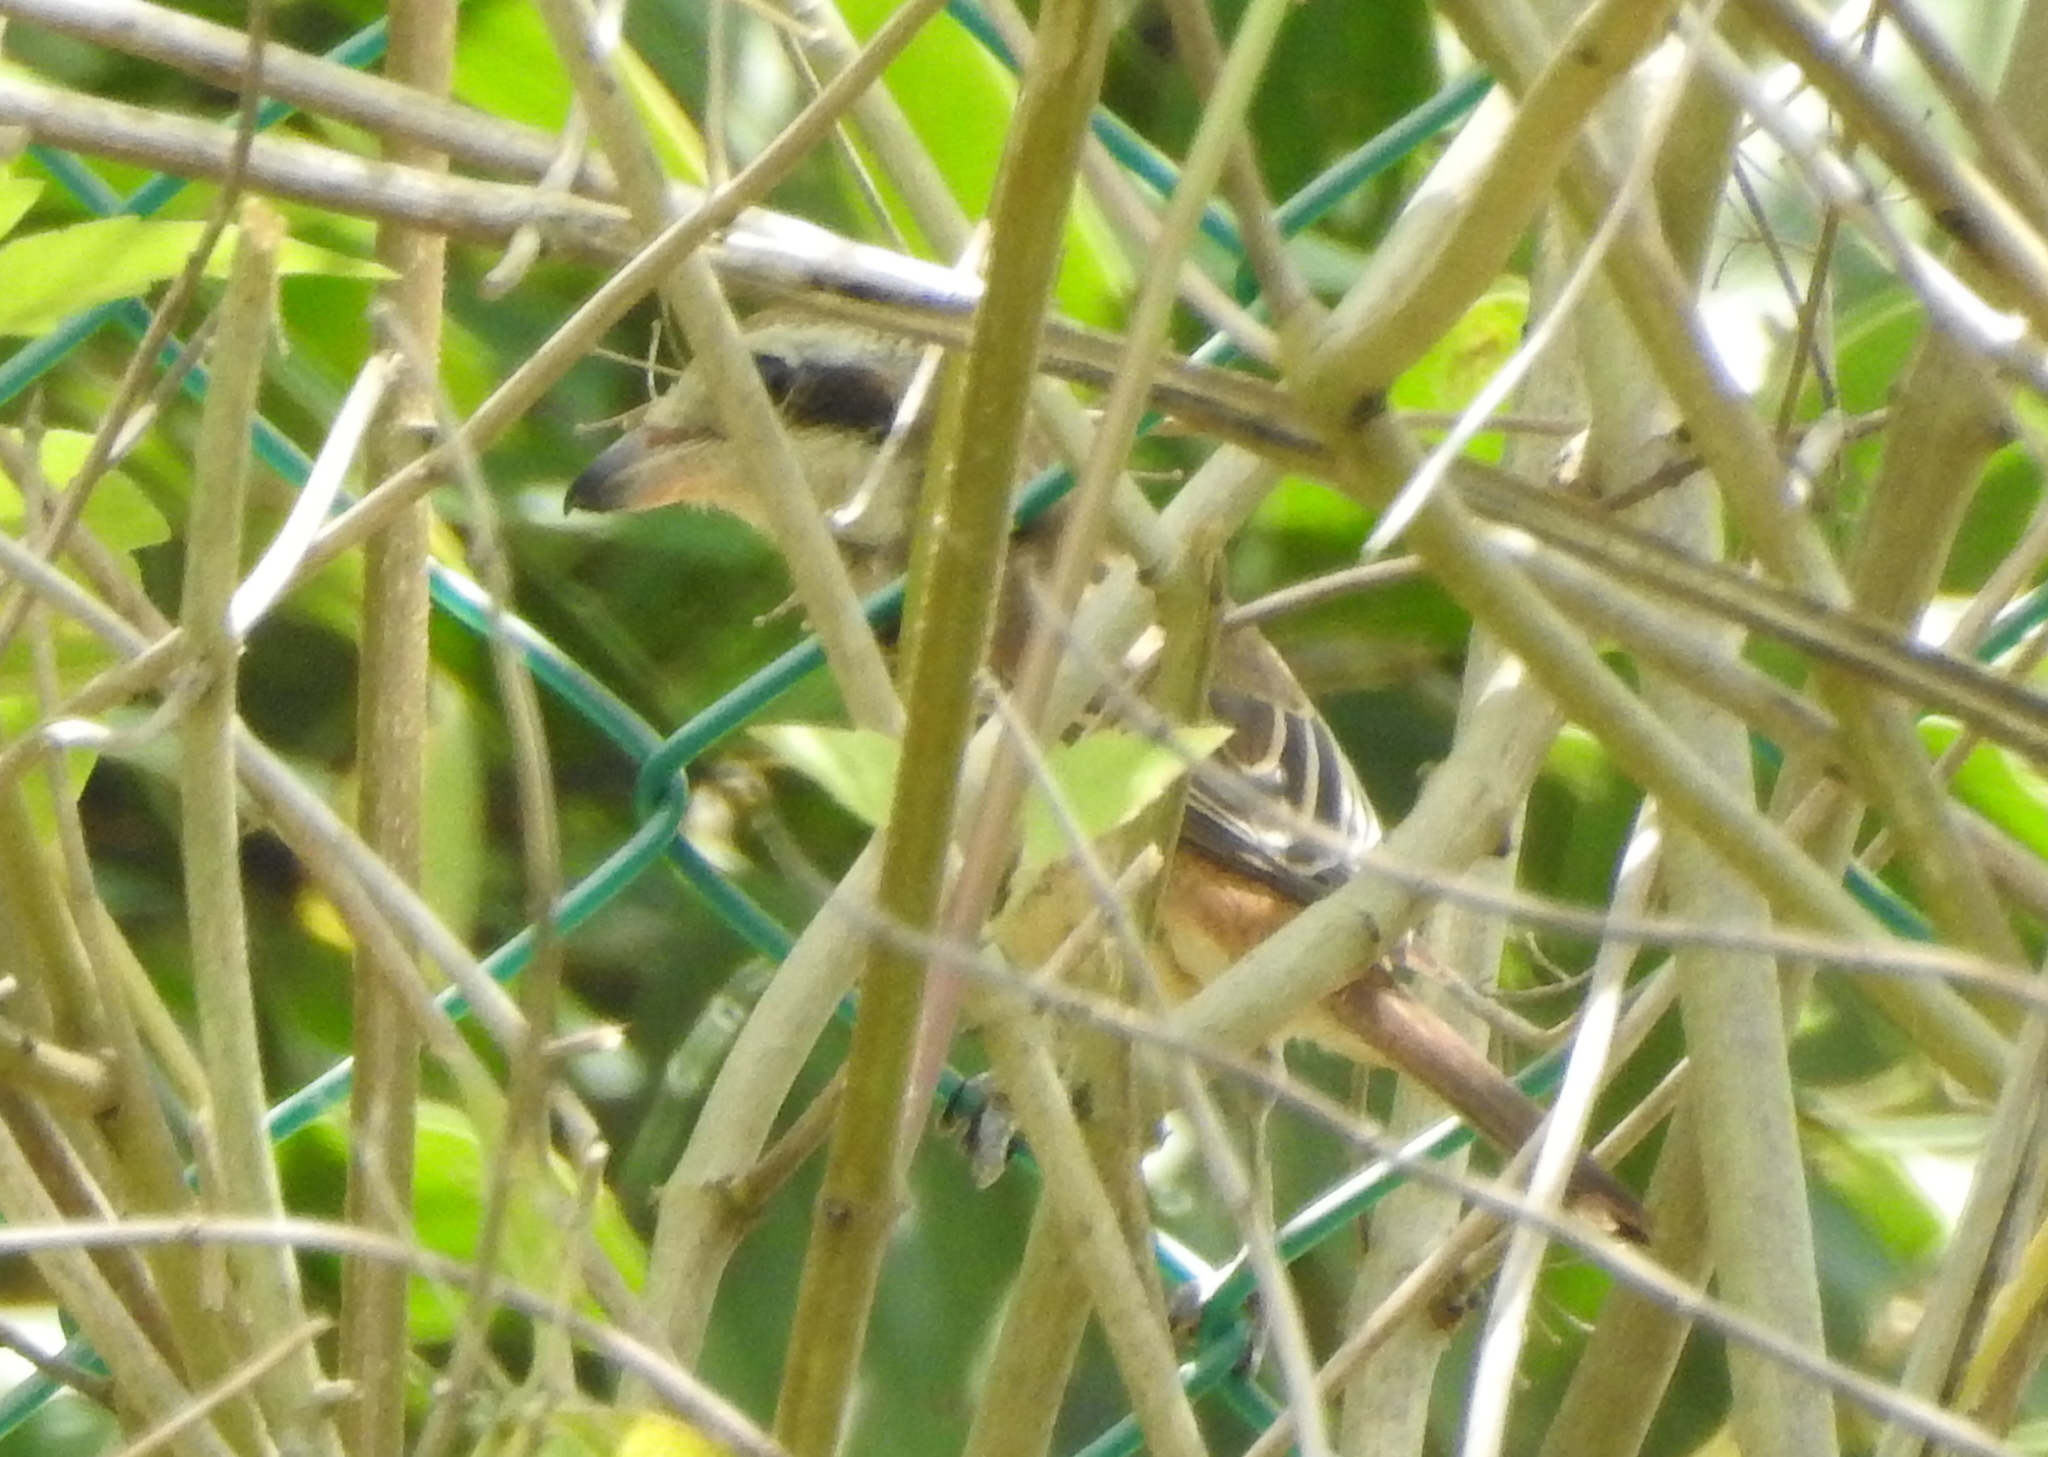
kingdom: Animalia
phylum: Chordata
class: Aves
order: Passeriformes
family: Laniidae
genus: Lanius
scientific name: Lanius cristatus
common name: Brown shrike
